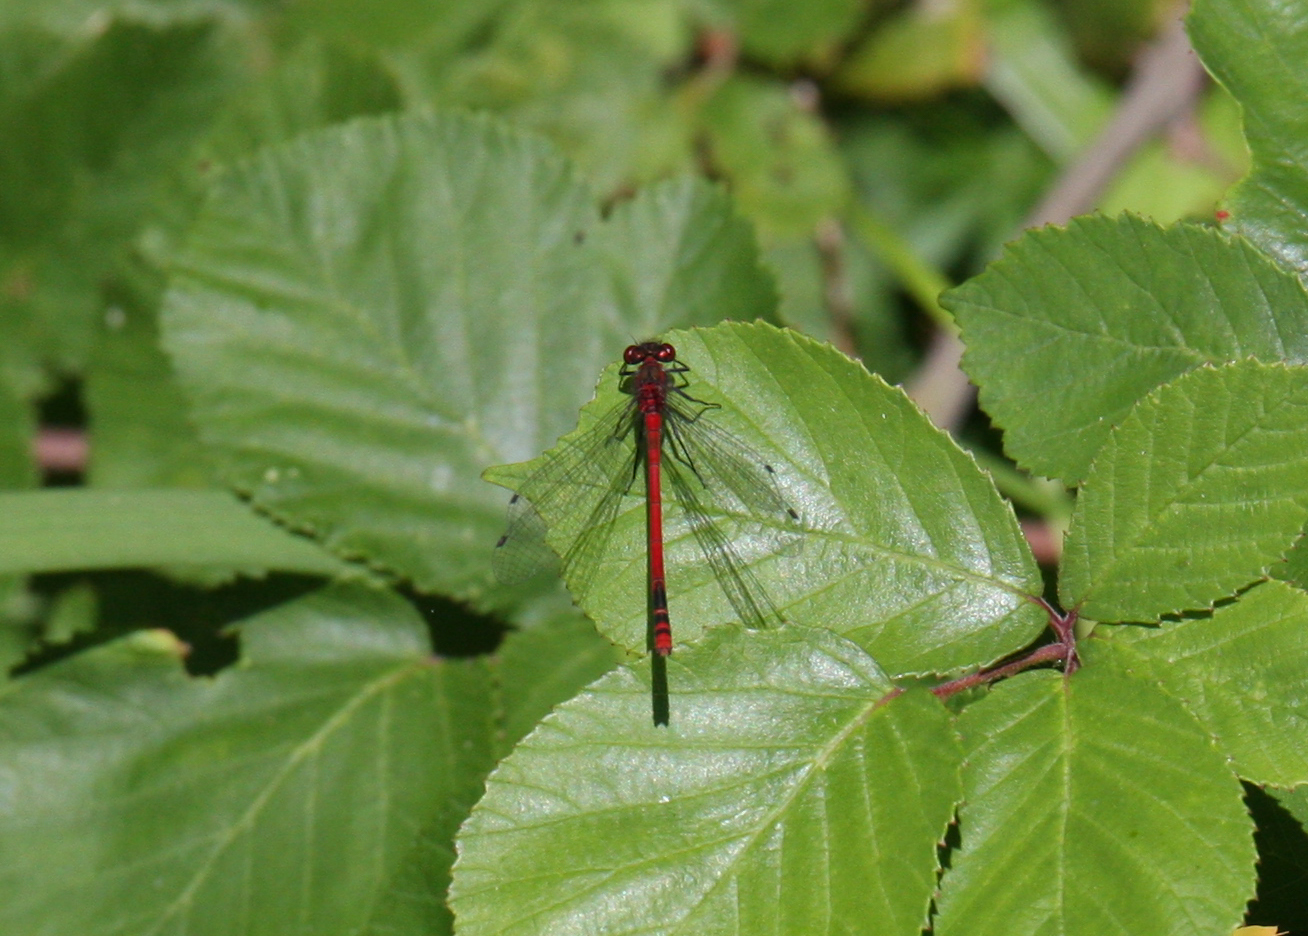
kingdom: Animalia
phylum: Arthropoda
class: Insecta
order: Odonata
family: Coenagrionidae
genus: Pyrrhosoma
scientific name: Pyrrhosoma nymphula
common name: Large red damsel
